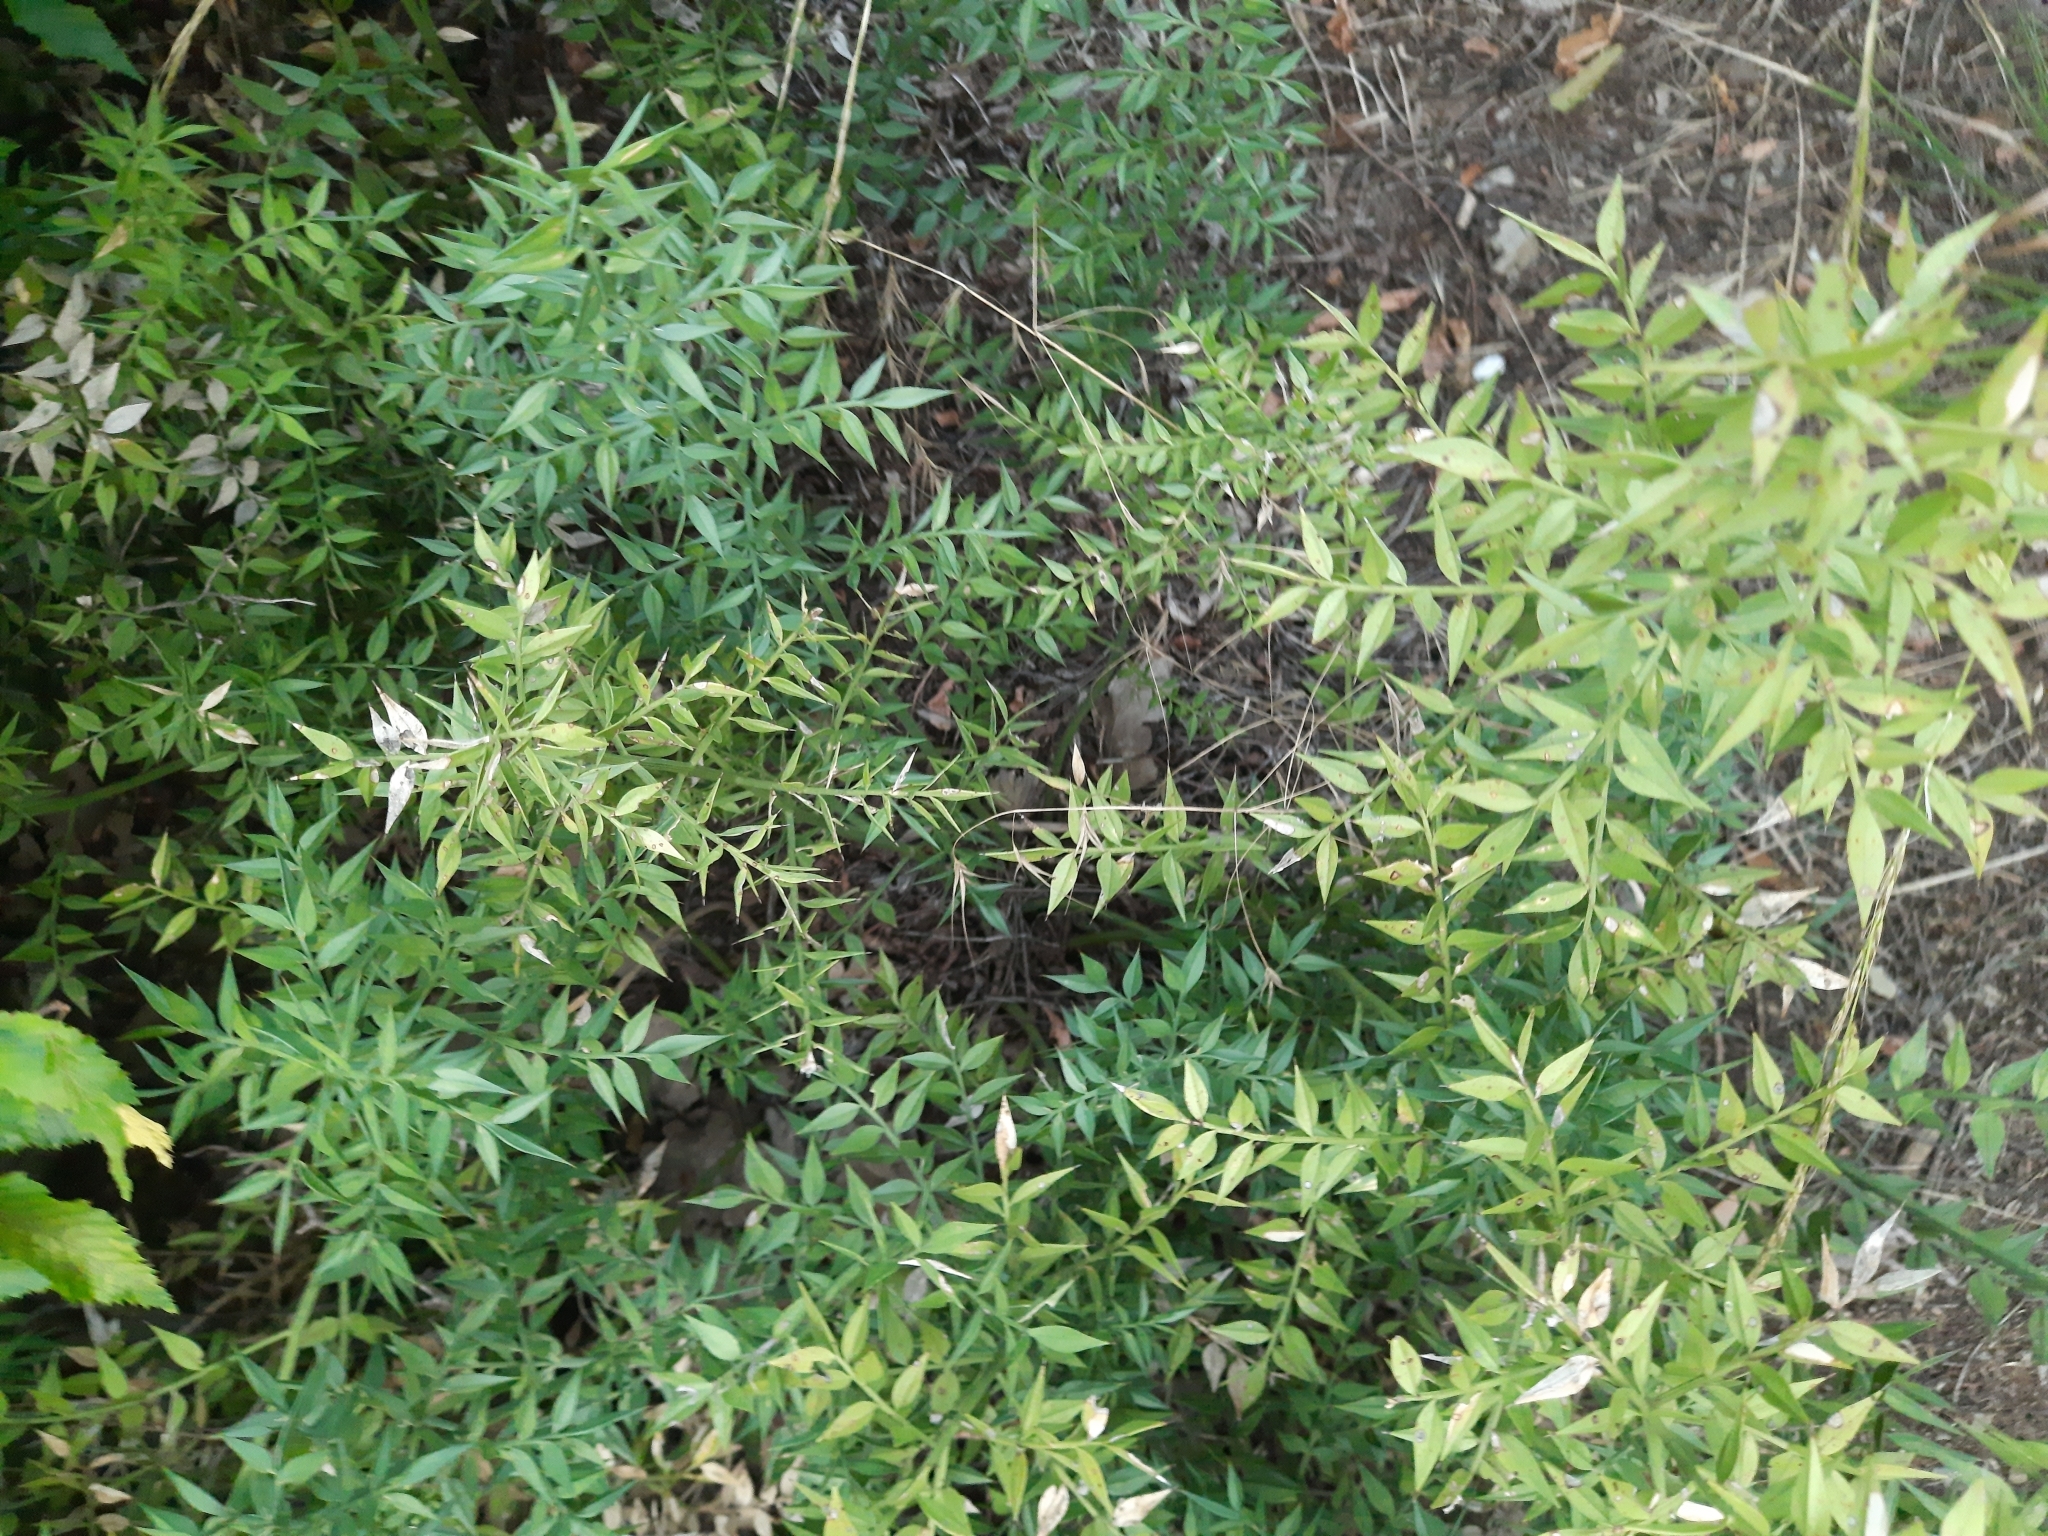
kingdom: Plantae
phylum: Tracheophyta
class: Liliopsida
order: Asparagales
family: Asparagaceae
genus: Ruscus
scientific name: Ruscus aculeatus
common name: Butcher's-broom
